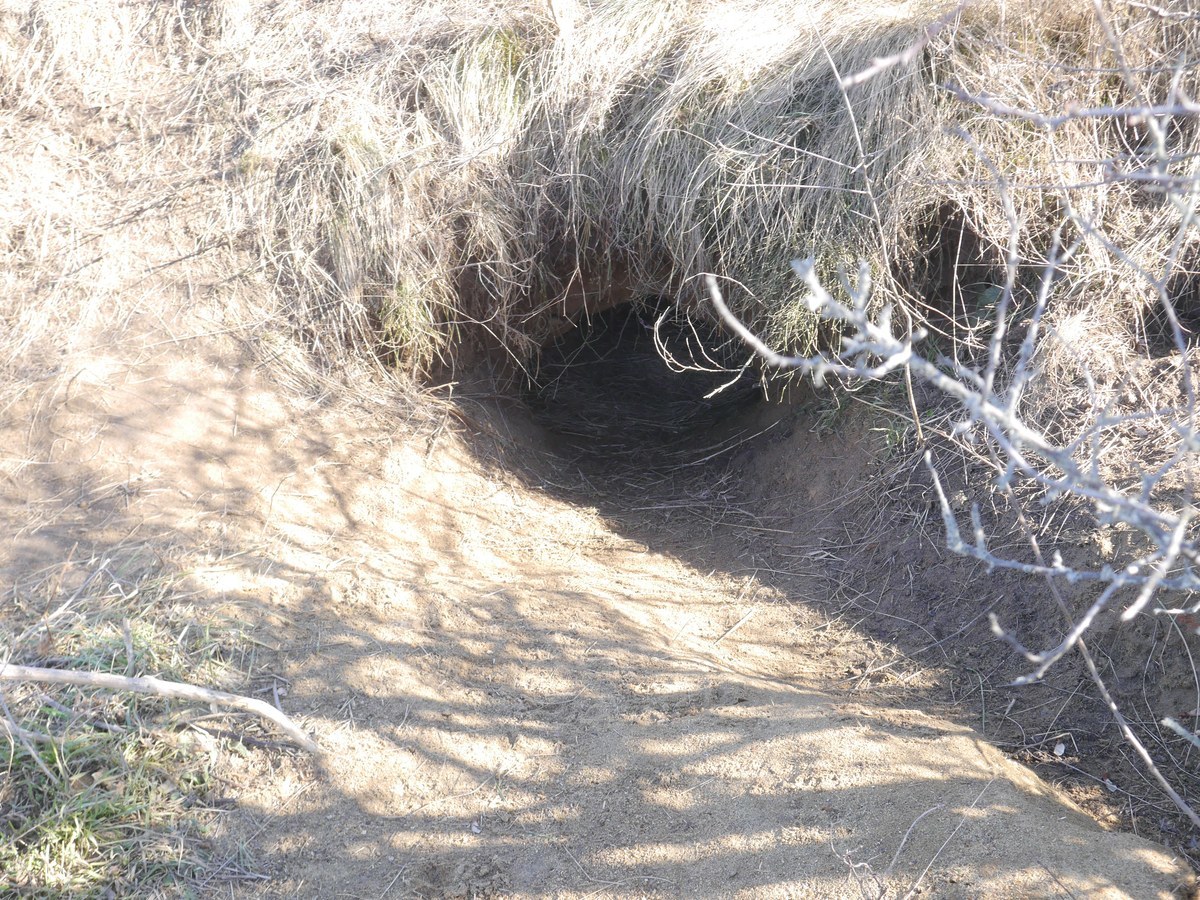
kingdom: Animalia
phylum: Chordata
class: Mammalia
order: Carnivora
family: Mustelidae
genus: Meles
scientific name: Meles meles
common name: Eurasian badger
